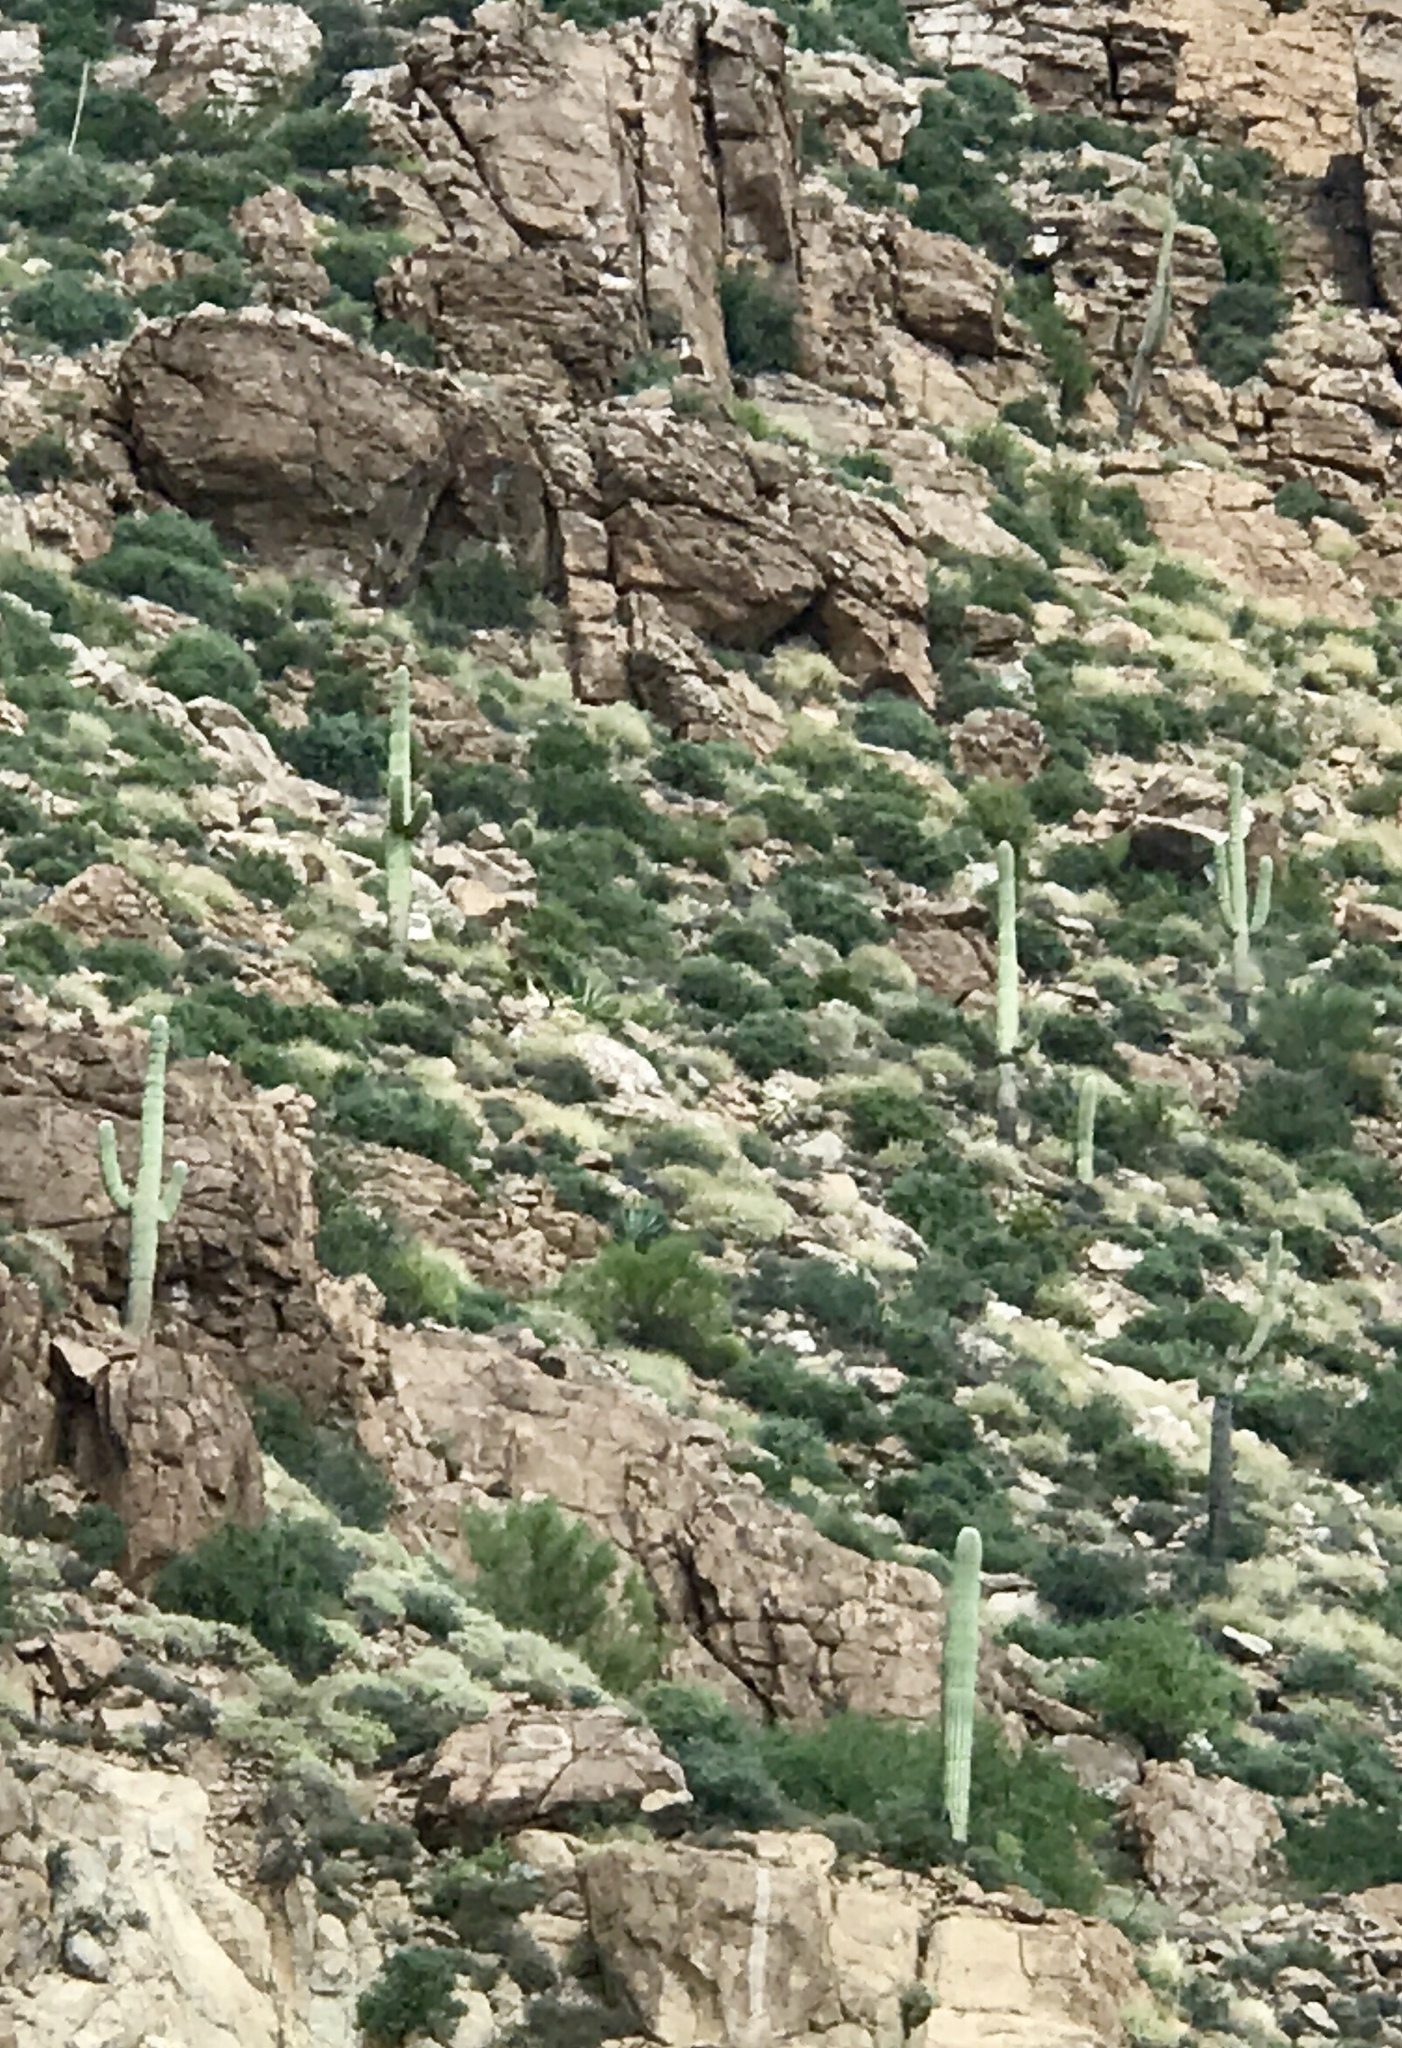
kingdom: Plantae
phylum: Tracheophyta
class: Magnoliopsida
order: Caryophyllales
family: Cactaceae
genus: Carnegiea
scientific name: Carnegiea gigantea
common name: Saguaro
